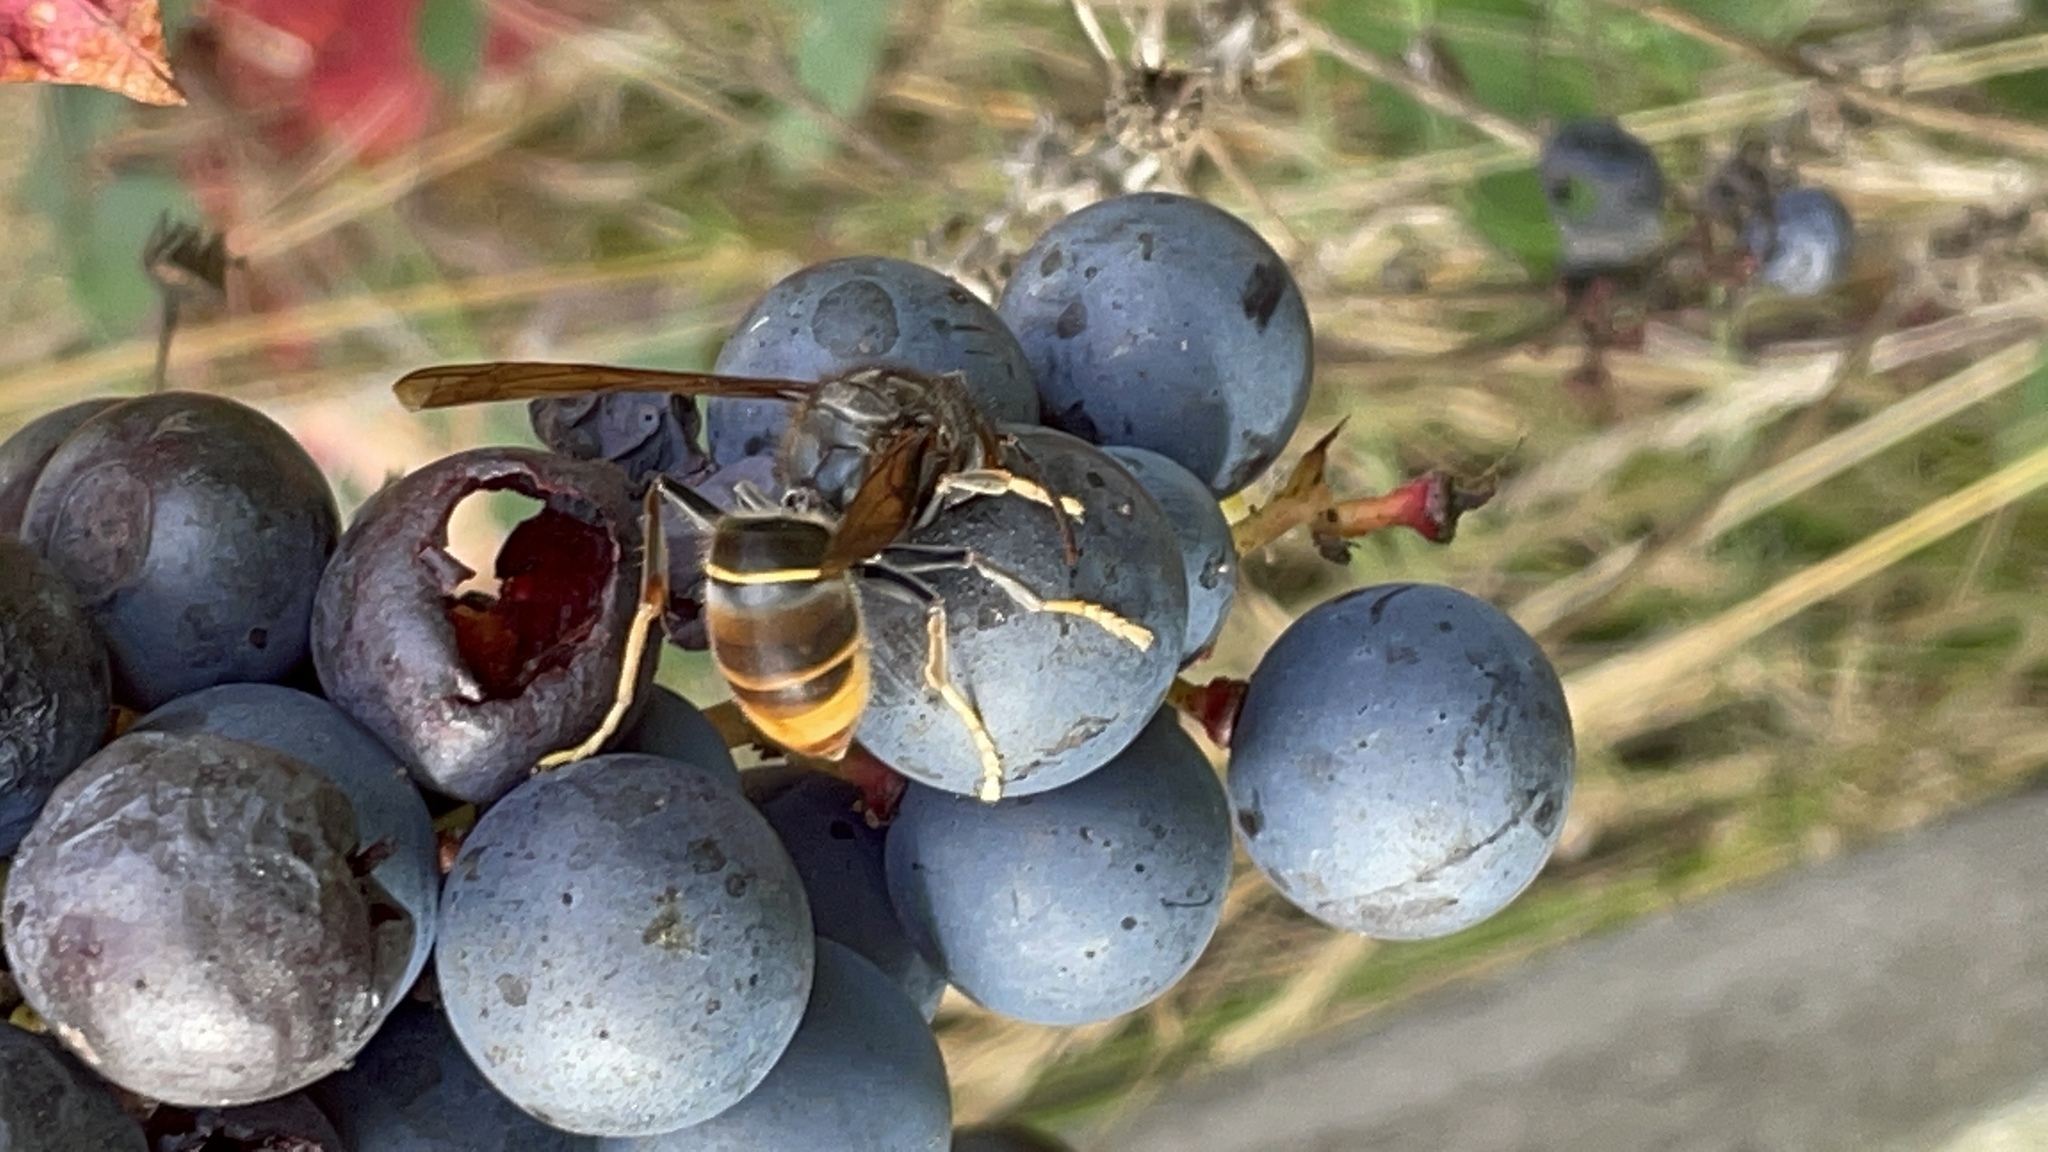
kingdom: Animalia
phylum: Arthropoda
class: Insecta
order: Hymenoptera
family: Vespidae
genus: Vespa
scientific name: Vespa velutina
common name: Asian hornet
